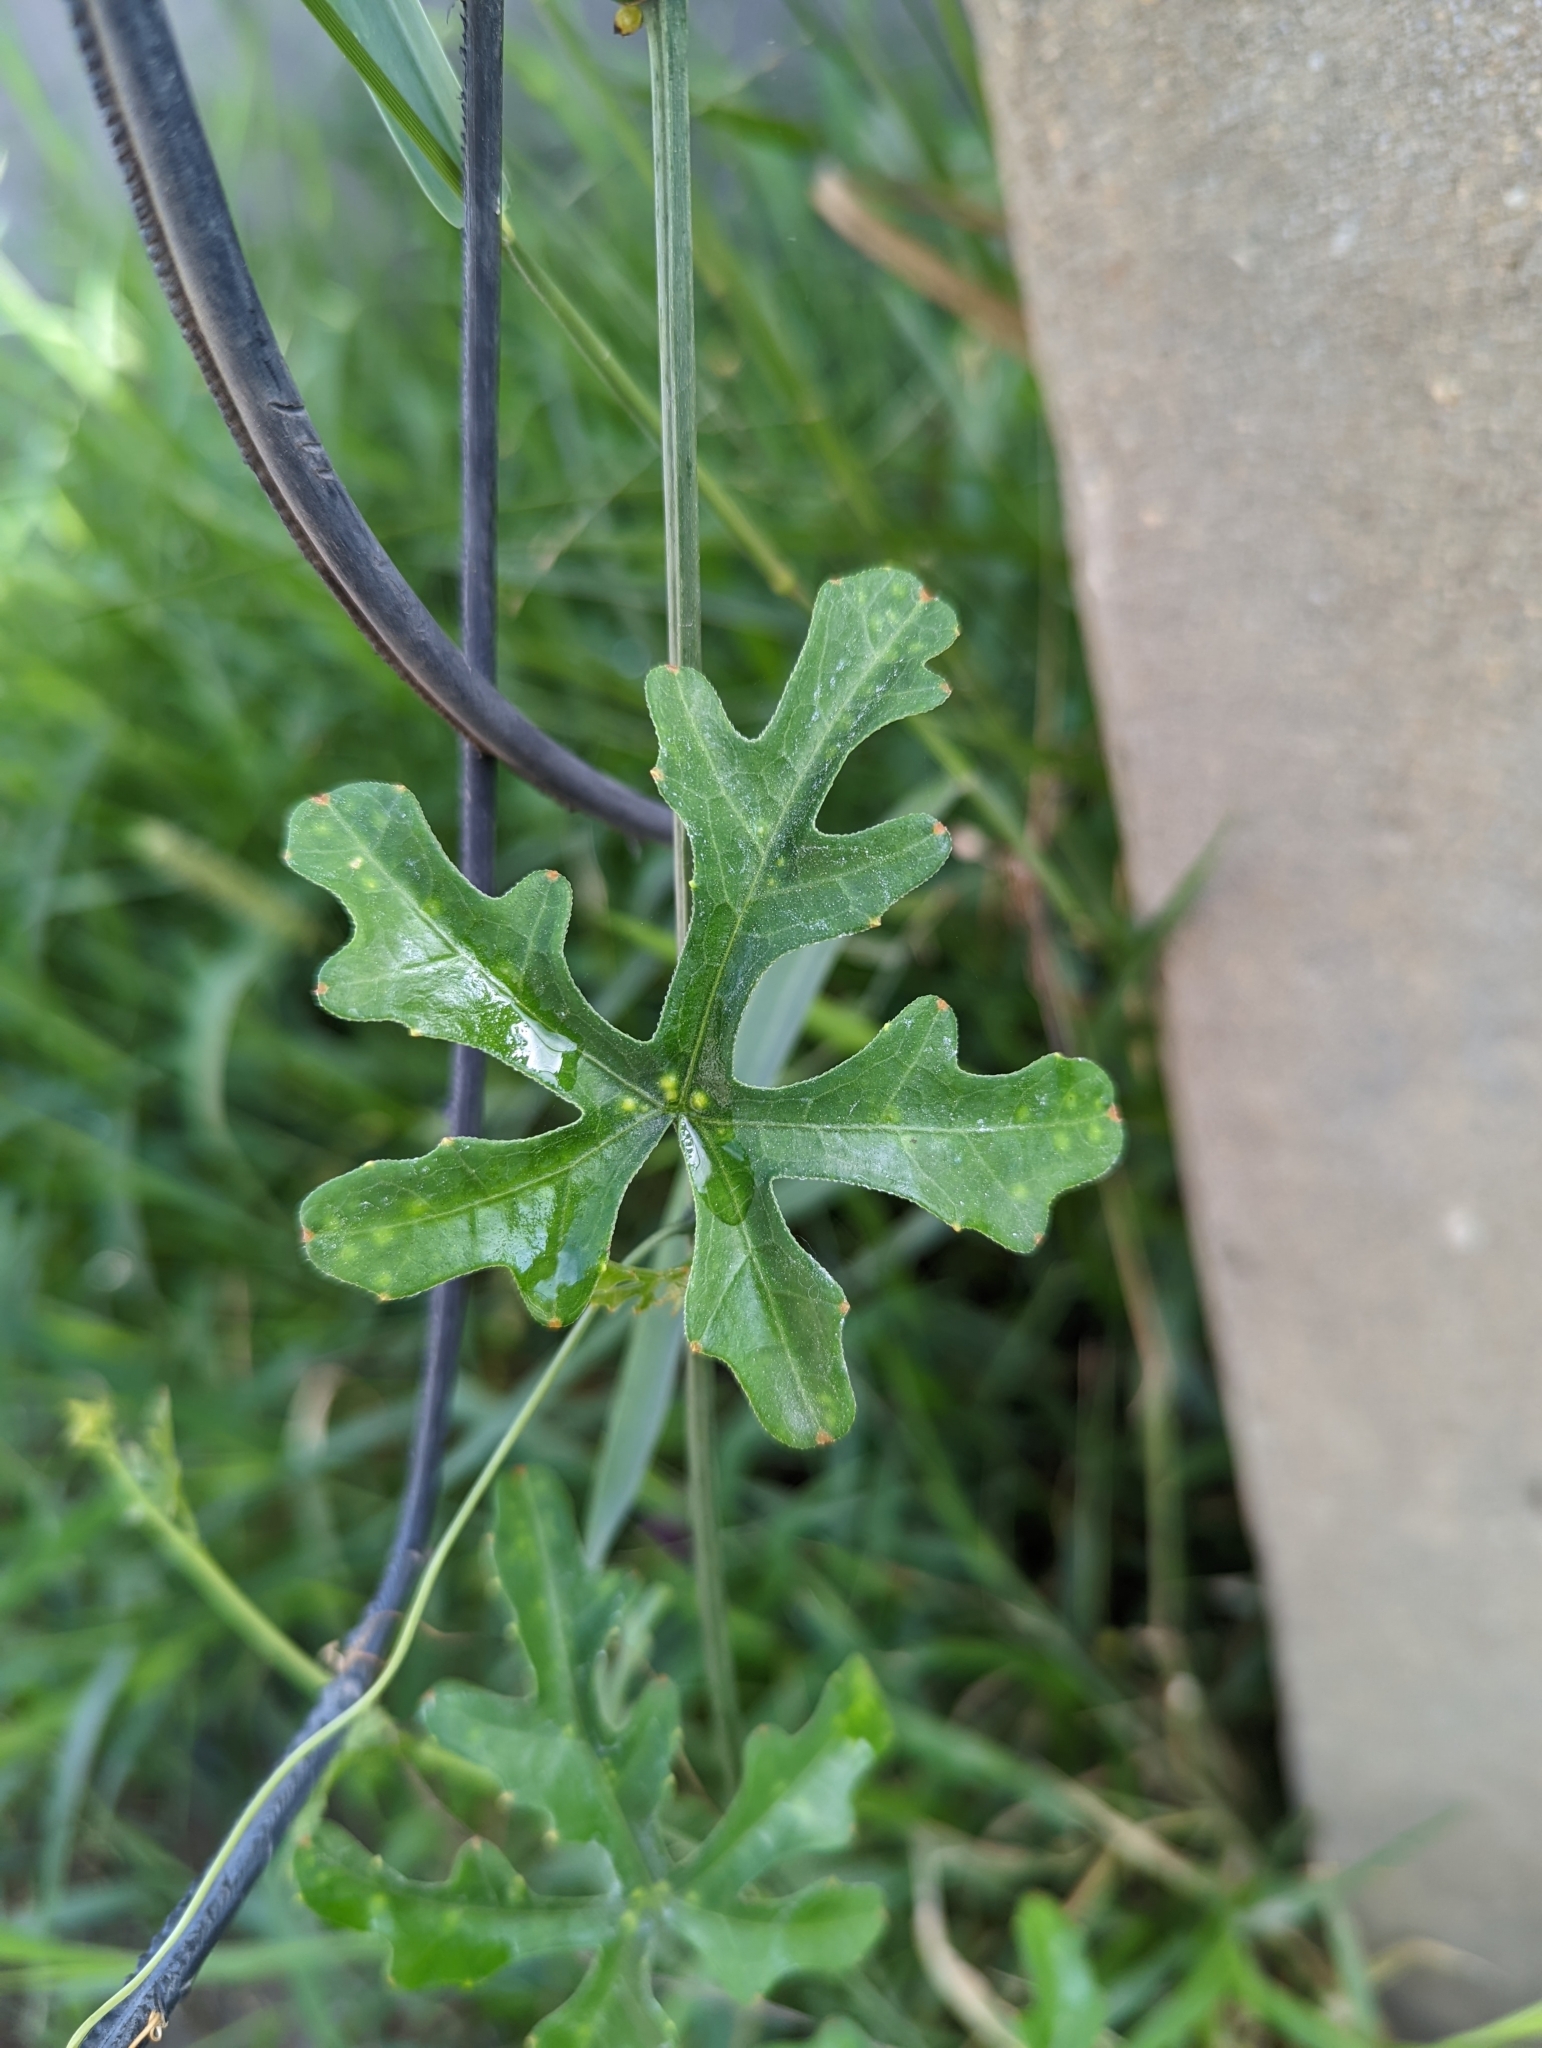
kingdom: Plantae
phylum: Tracheophyta
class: Magnoliopsida
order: Cucurbitales
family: Cucurbitaceae
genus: Coccinia
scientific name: Coccinia grandis
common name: Ivy gourd
